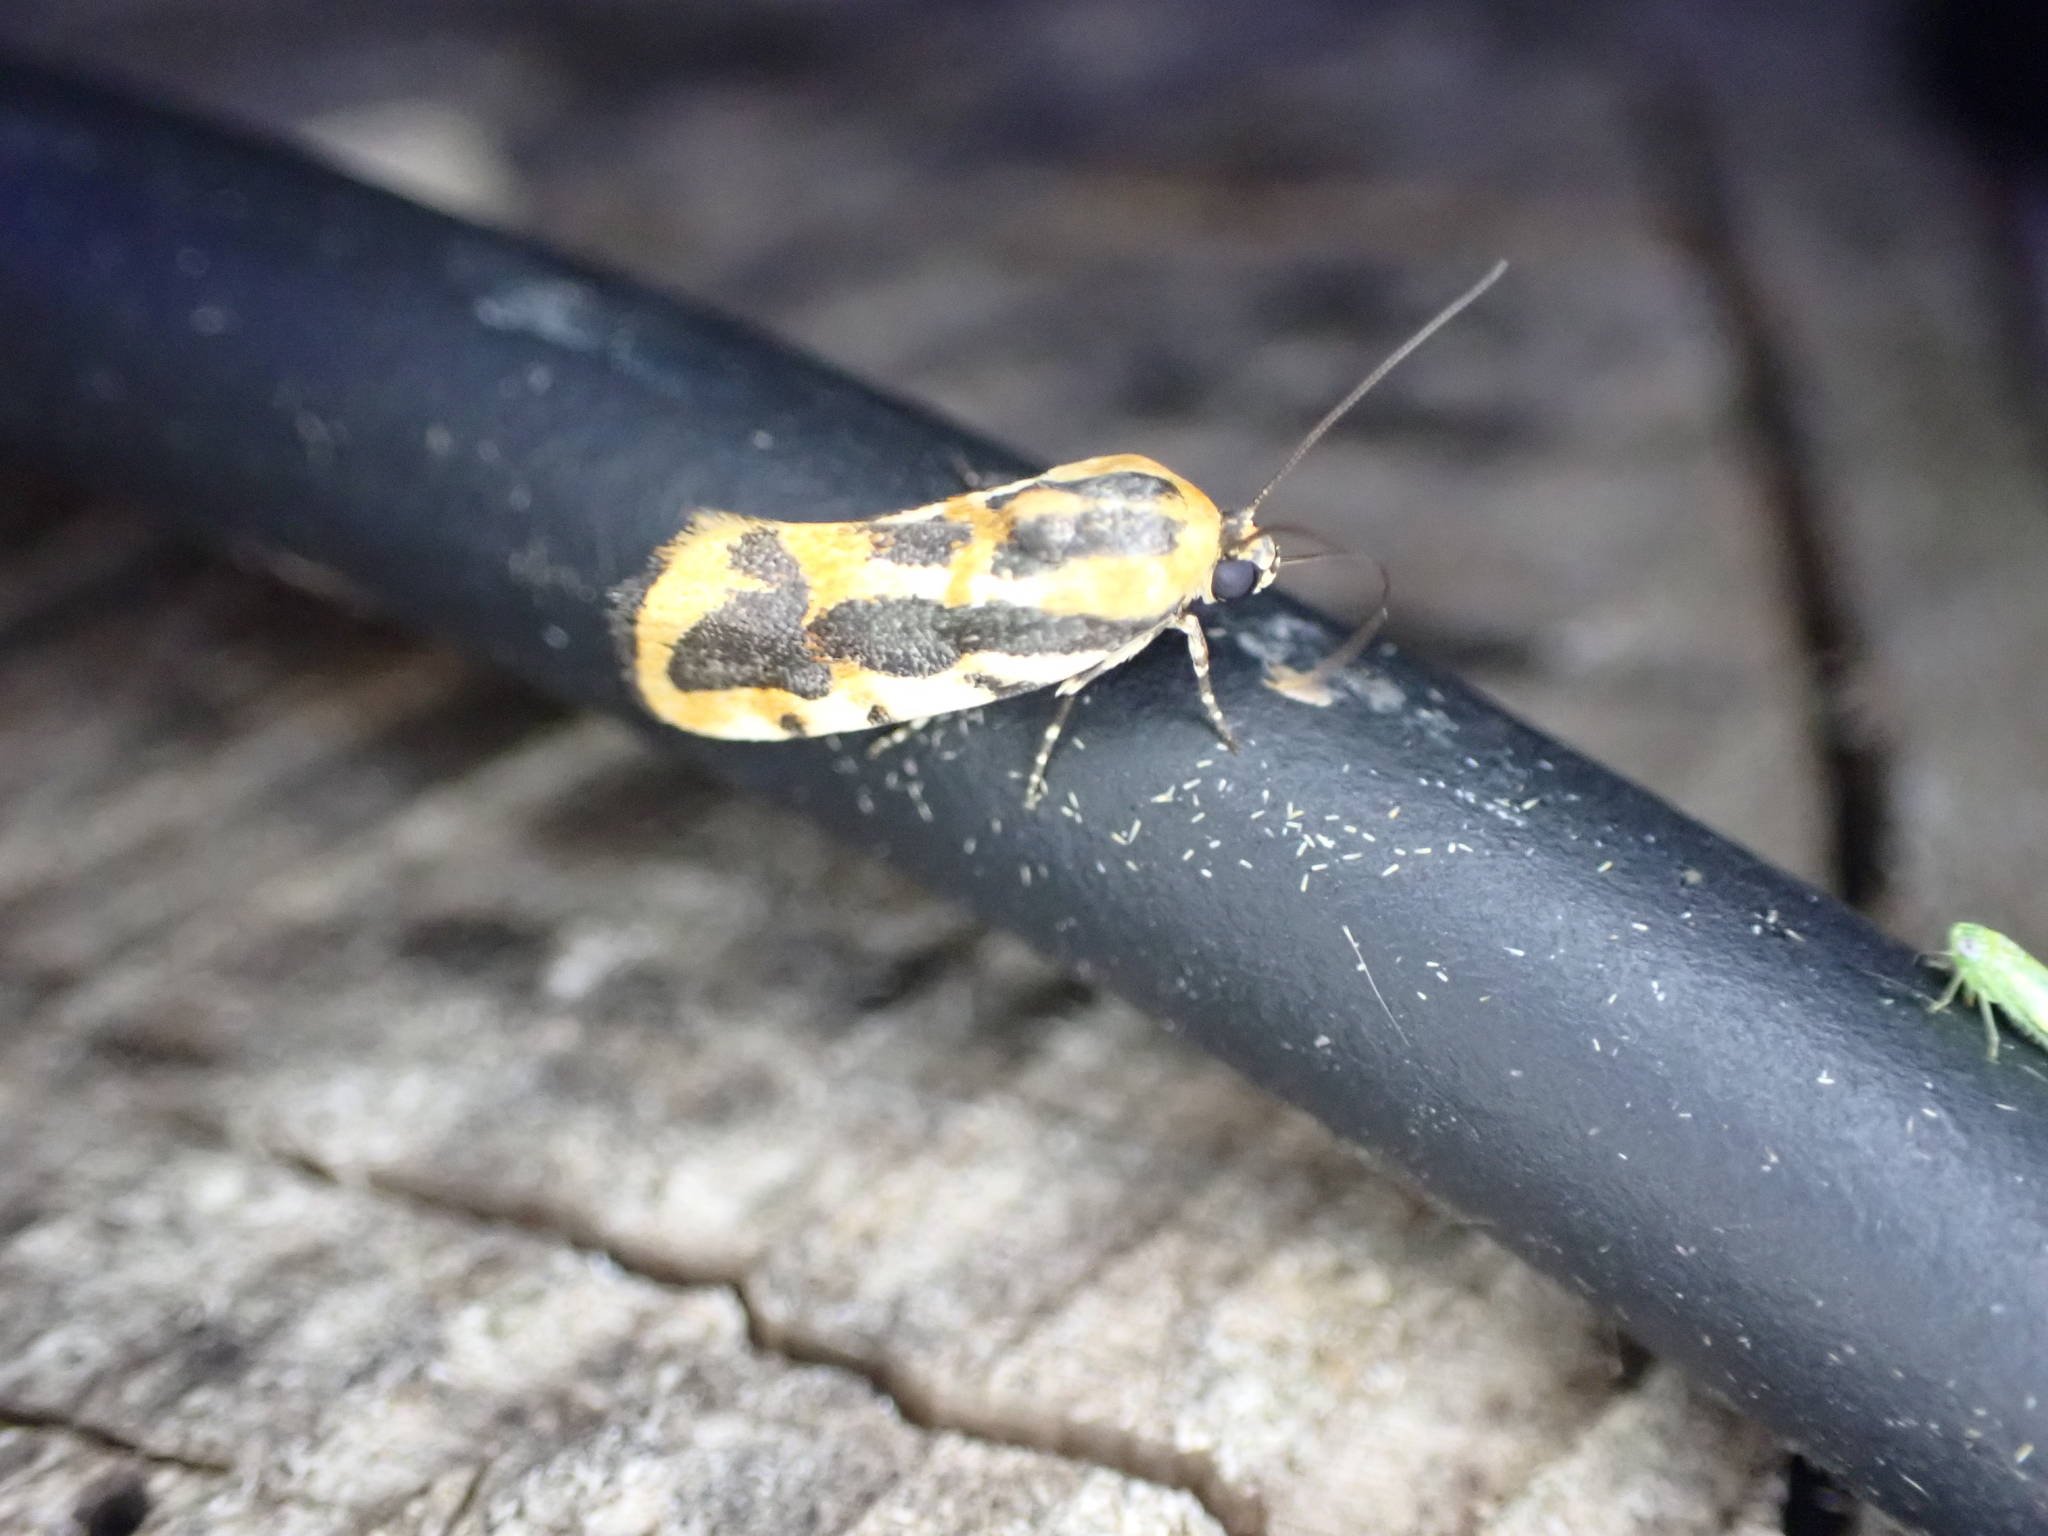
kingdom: Animalia
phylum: Arthropoda
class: Insecta
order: Lepidoptera
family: Noctuidae
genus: Acontia
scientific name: Acontia leo
